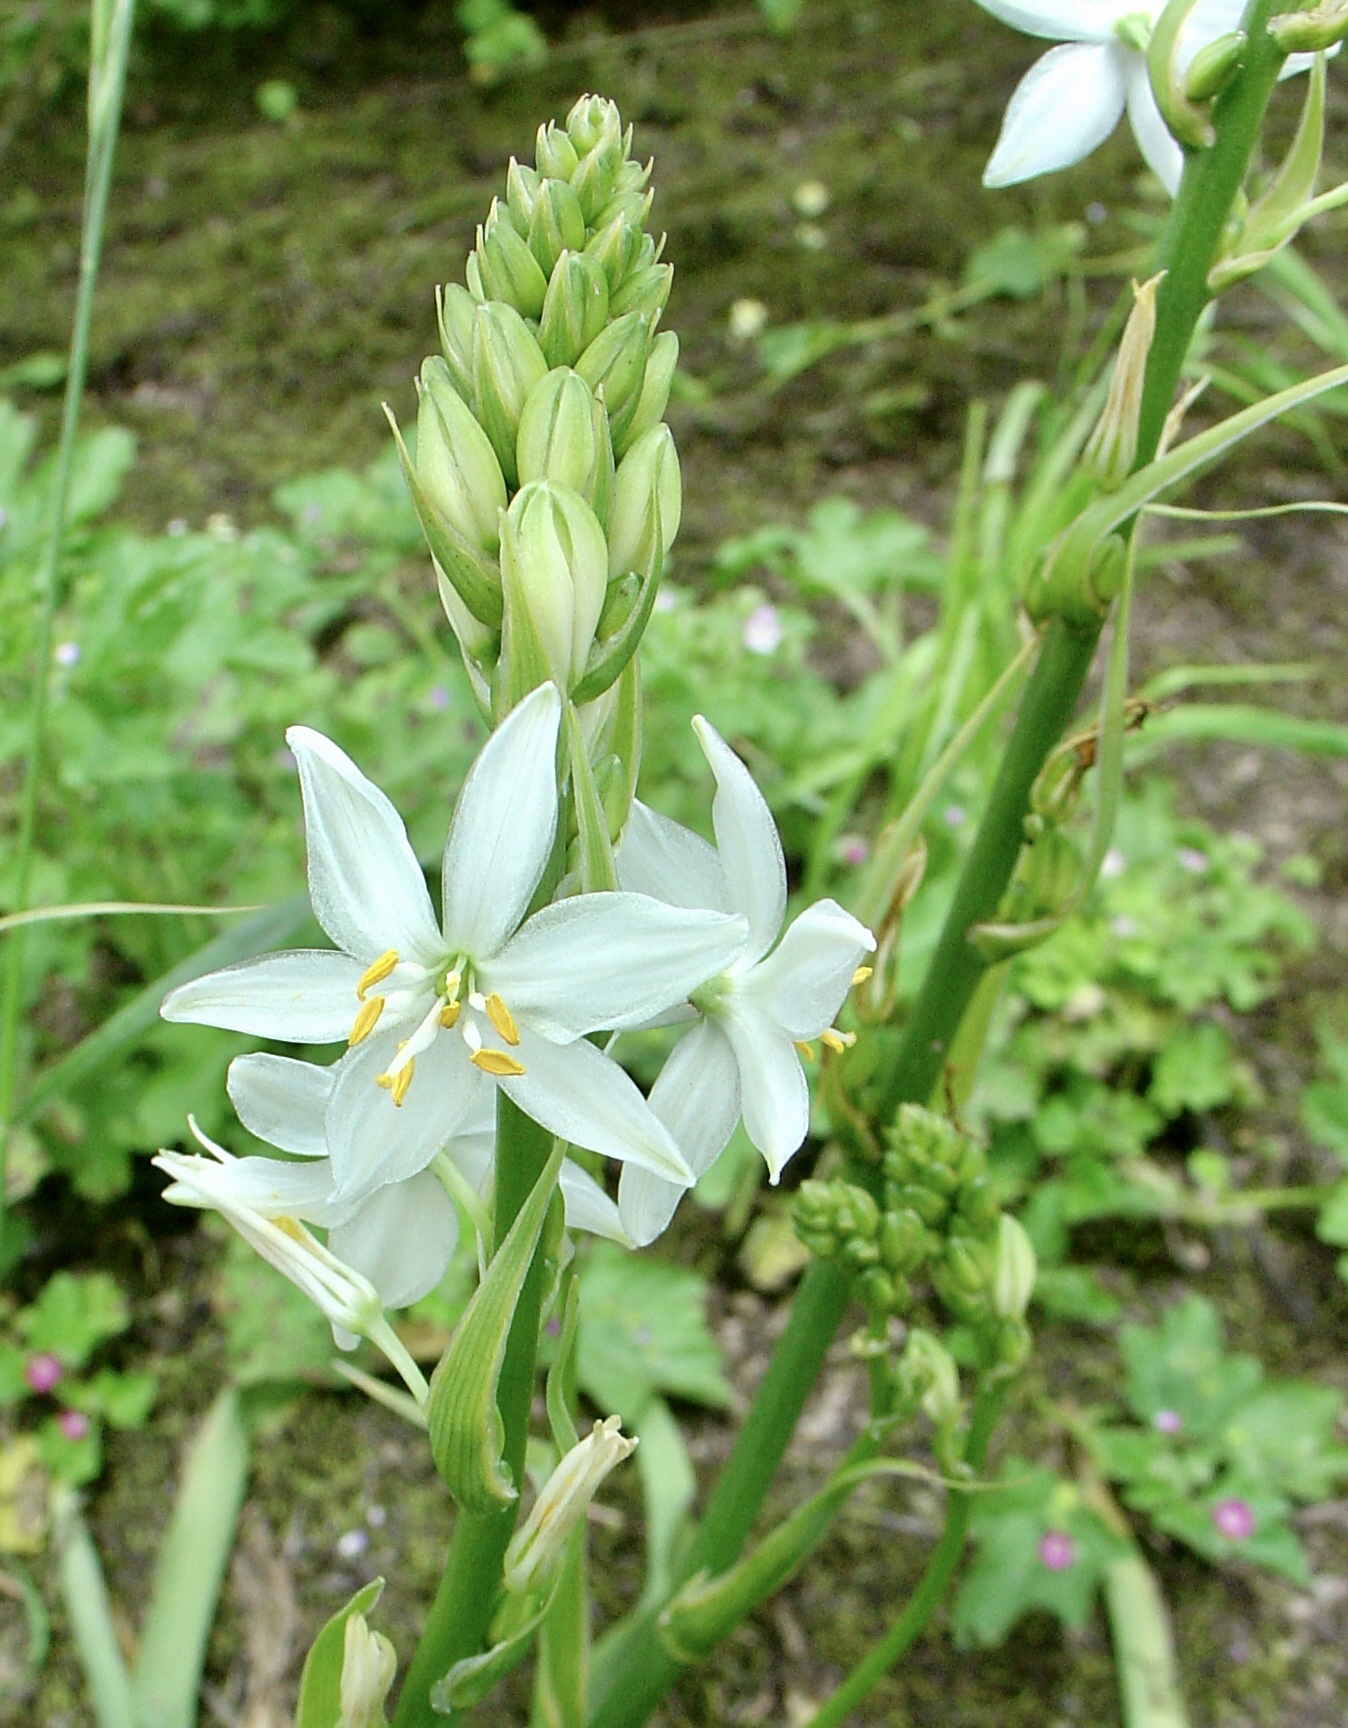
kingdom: Plantae
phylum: Tracheophyta
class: Liliopsida
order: Asparagales
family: Asparagaceae
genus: Trihesperus
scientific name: Trihesperus glaucus
